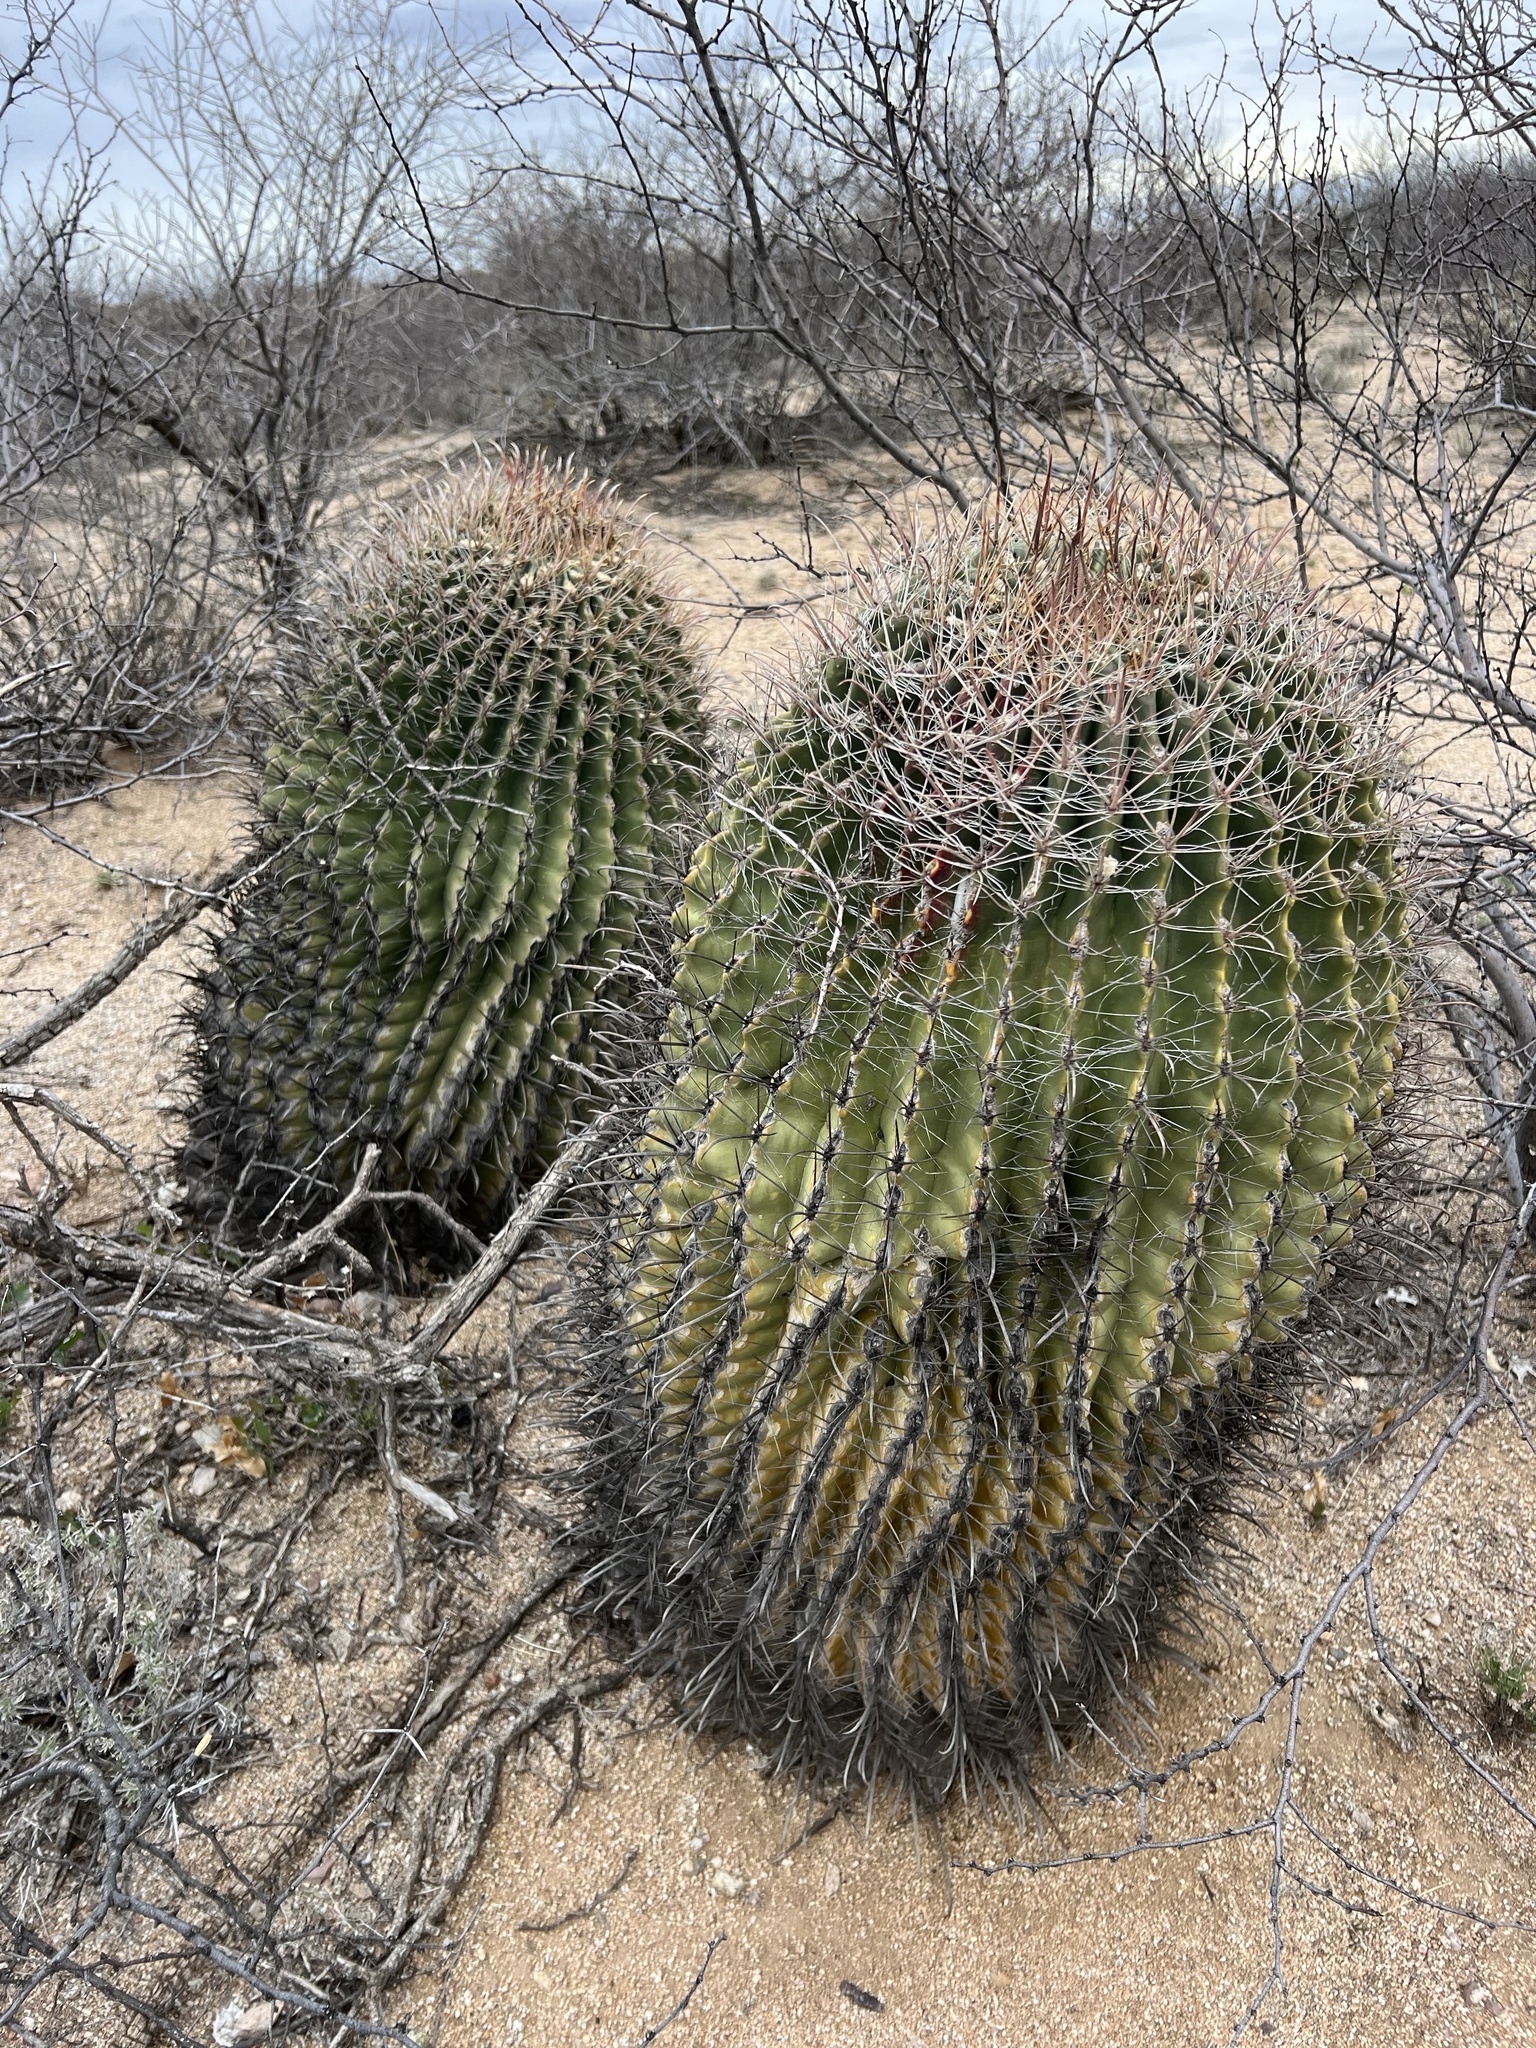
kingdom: Plantae
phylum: Tracheophyta
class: Magnoliopsida
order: Caryophyllales
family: Cactaceae
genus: Ferocactus
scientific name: Ferocactus wislizeni
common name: Candy barrel cactus
